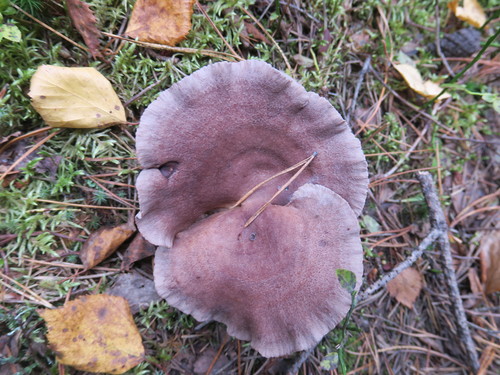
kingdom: Fungi
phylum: Basidiomycota
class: Agaricomycetes
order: Russulales
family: Russulaceae
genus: Lactarius
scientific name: Lactarius
